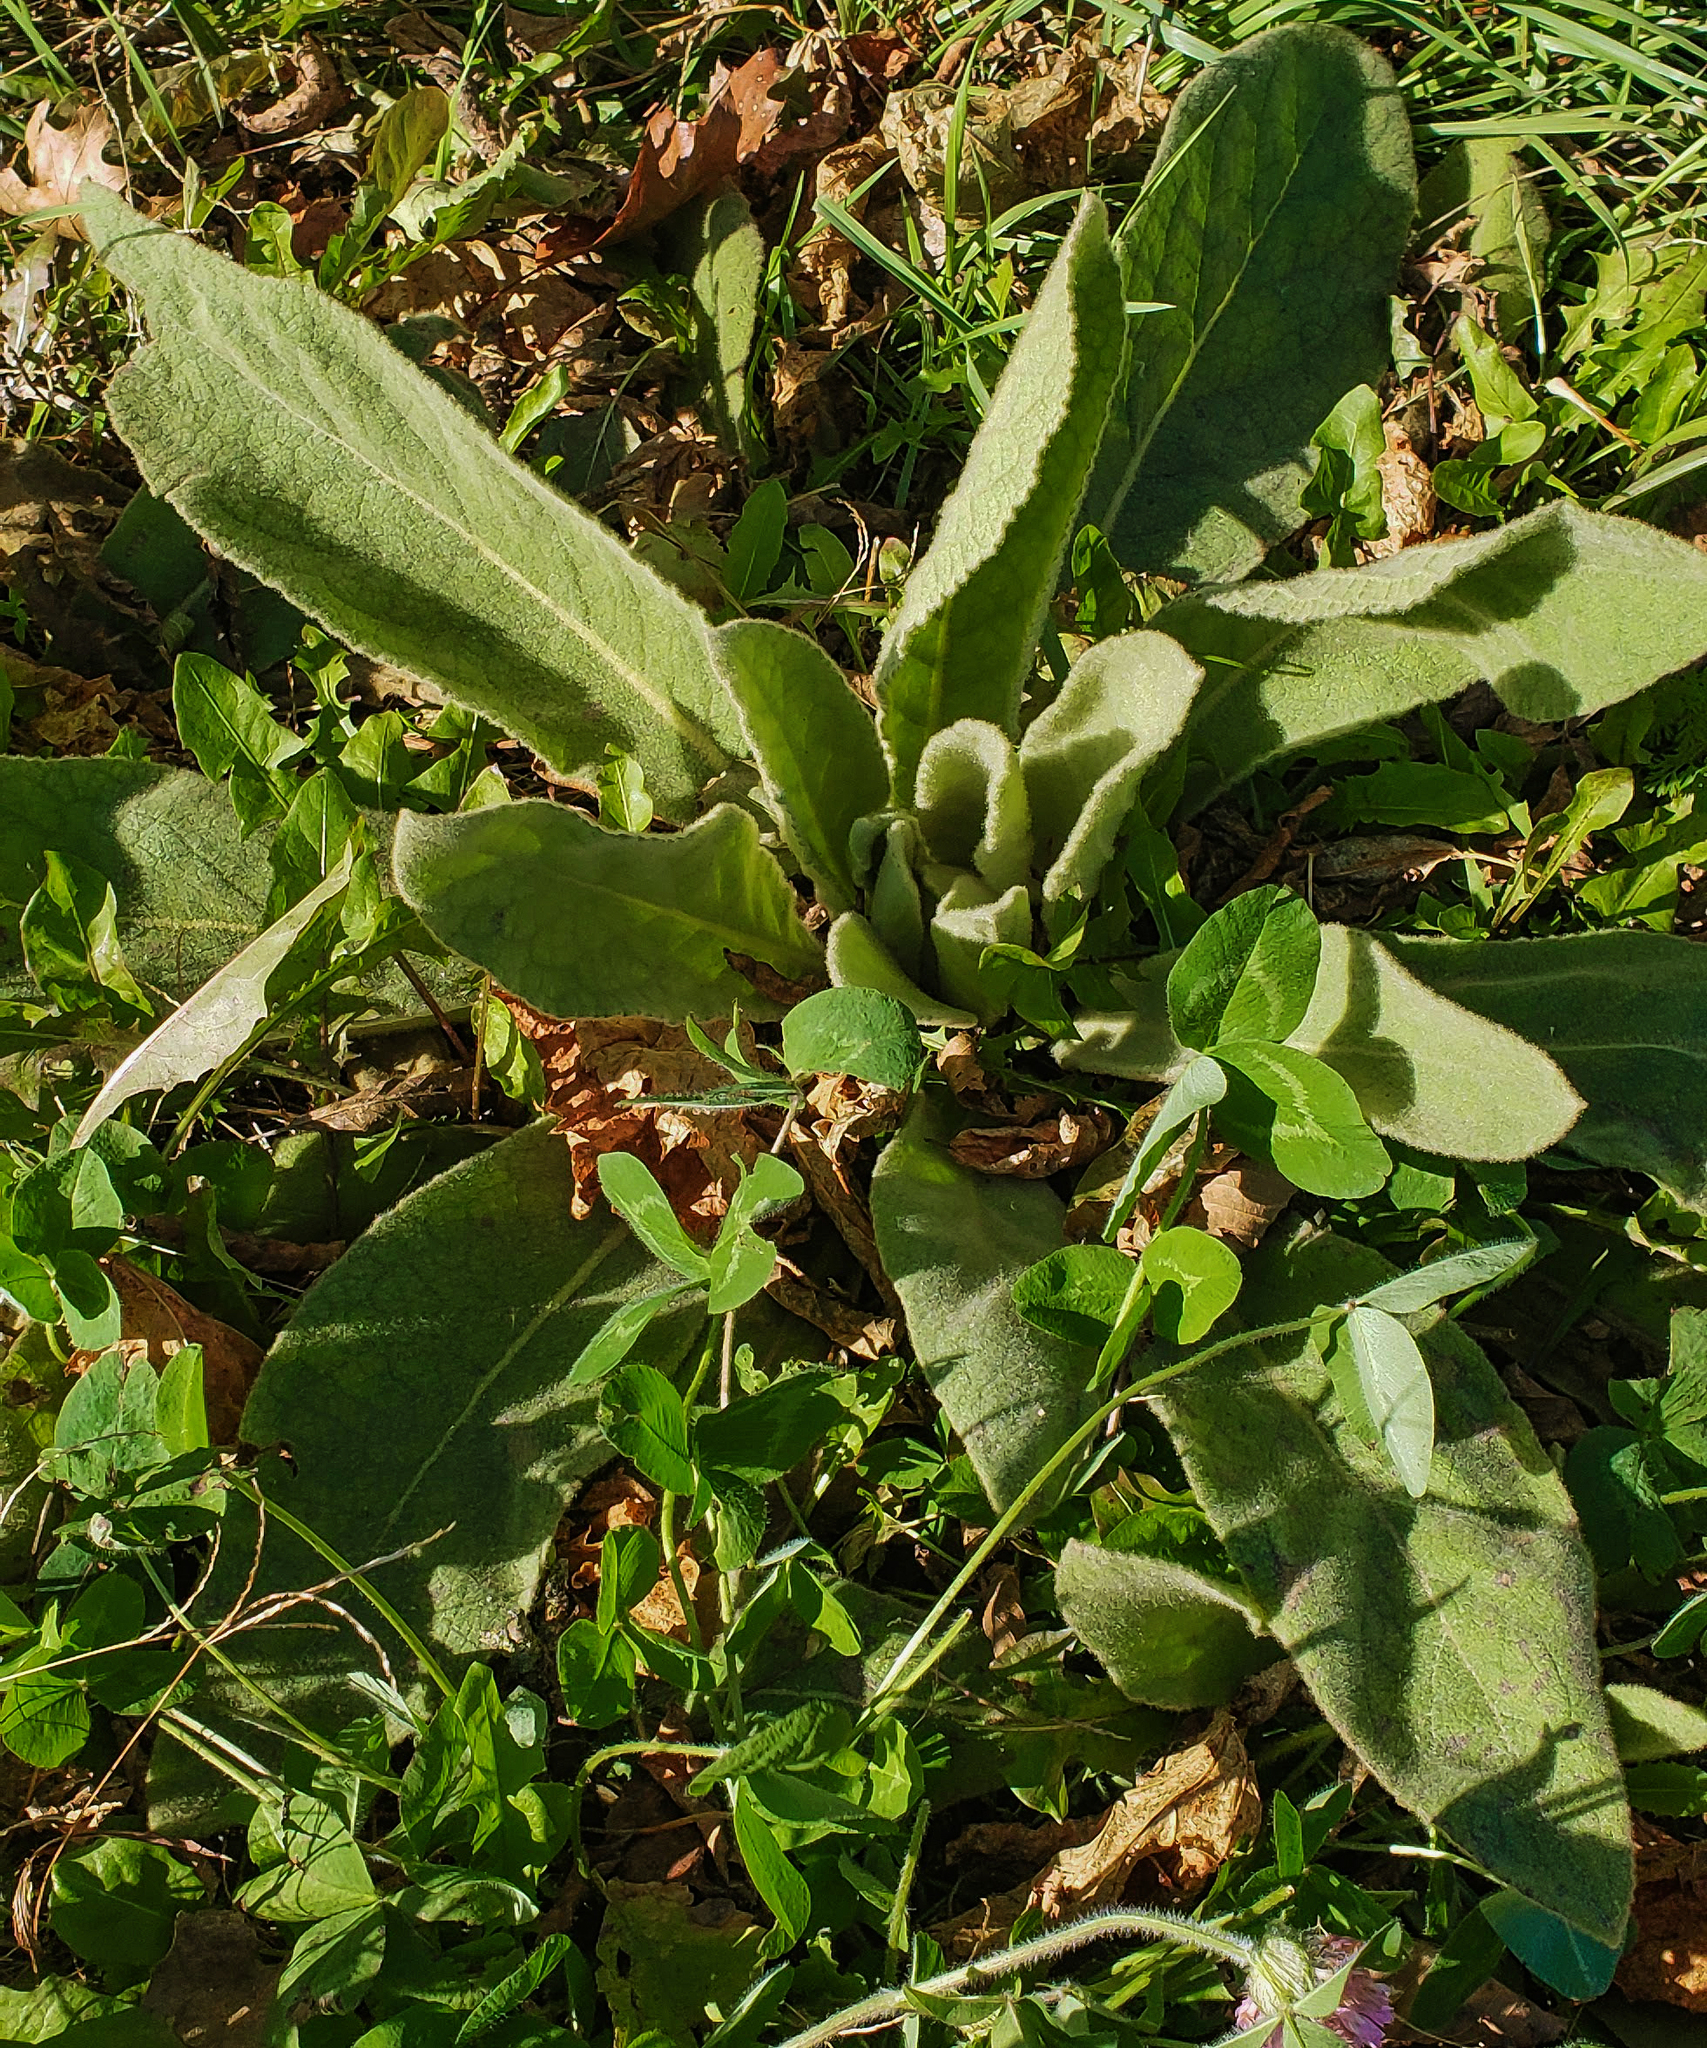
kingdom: Plantae
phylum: Tracheophyta
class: Magnoliopsida
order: Lamiales
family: Scrophulariaceae
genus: Verbascum
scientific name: Verbascum thapsus
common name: Common mullein
